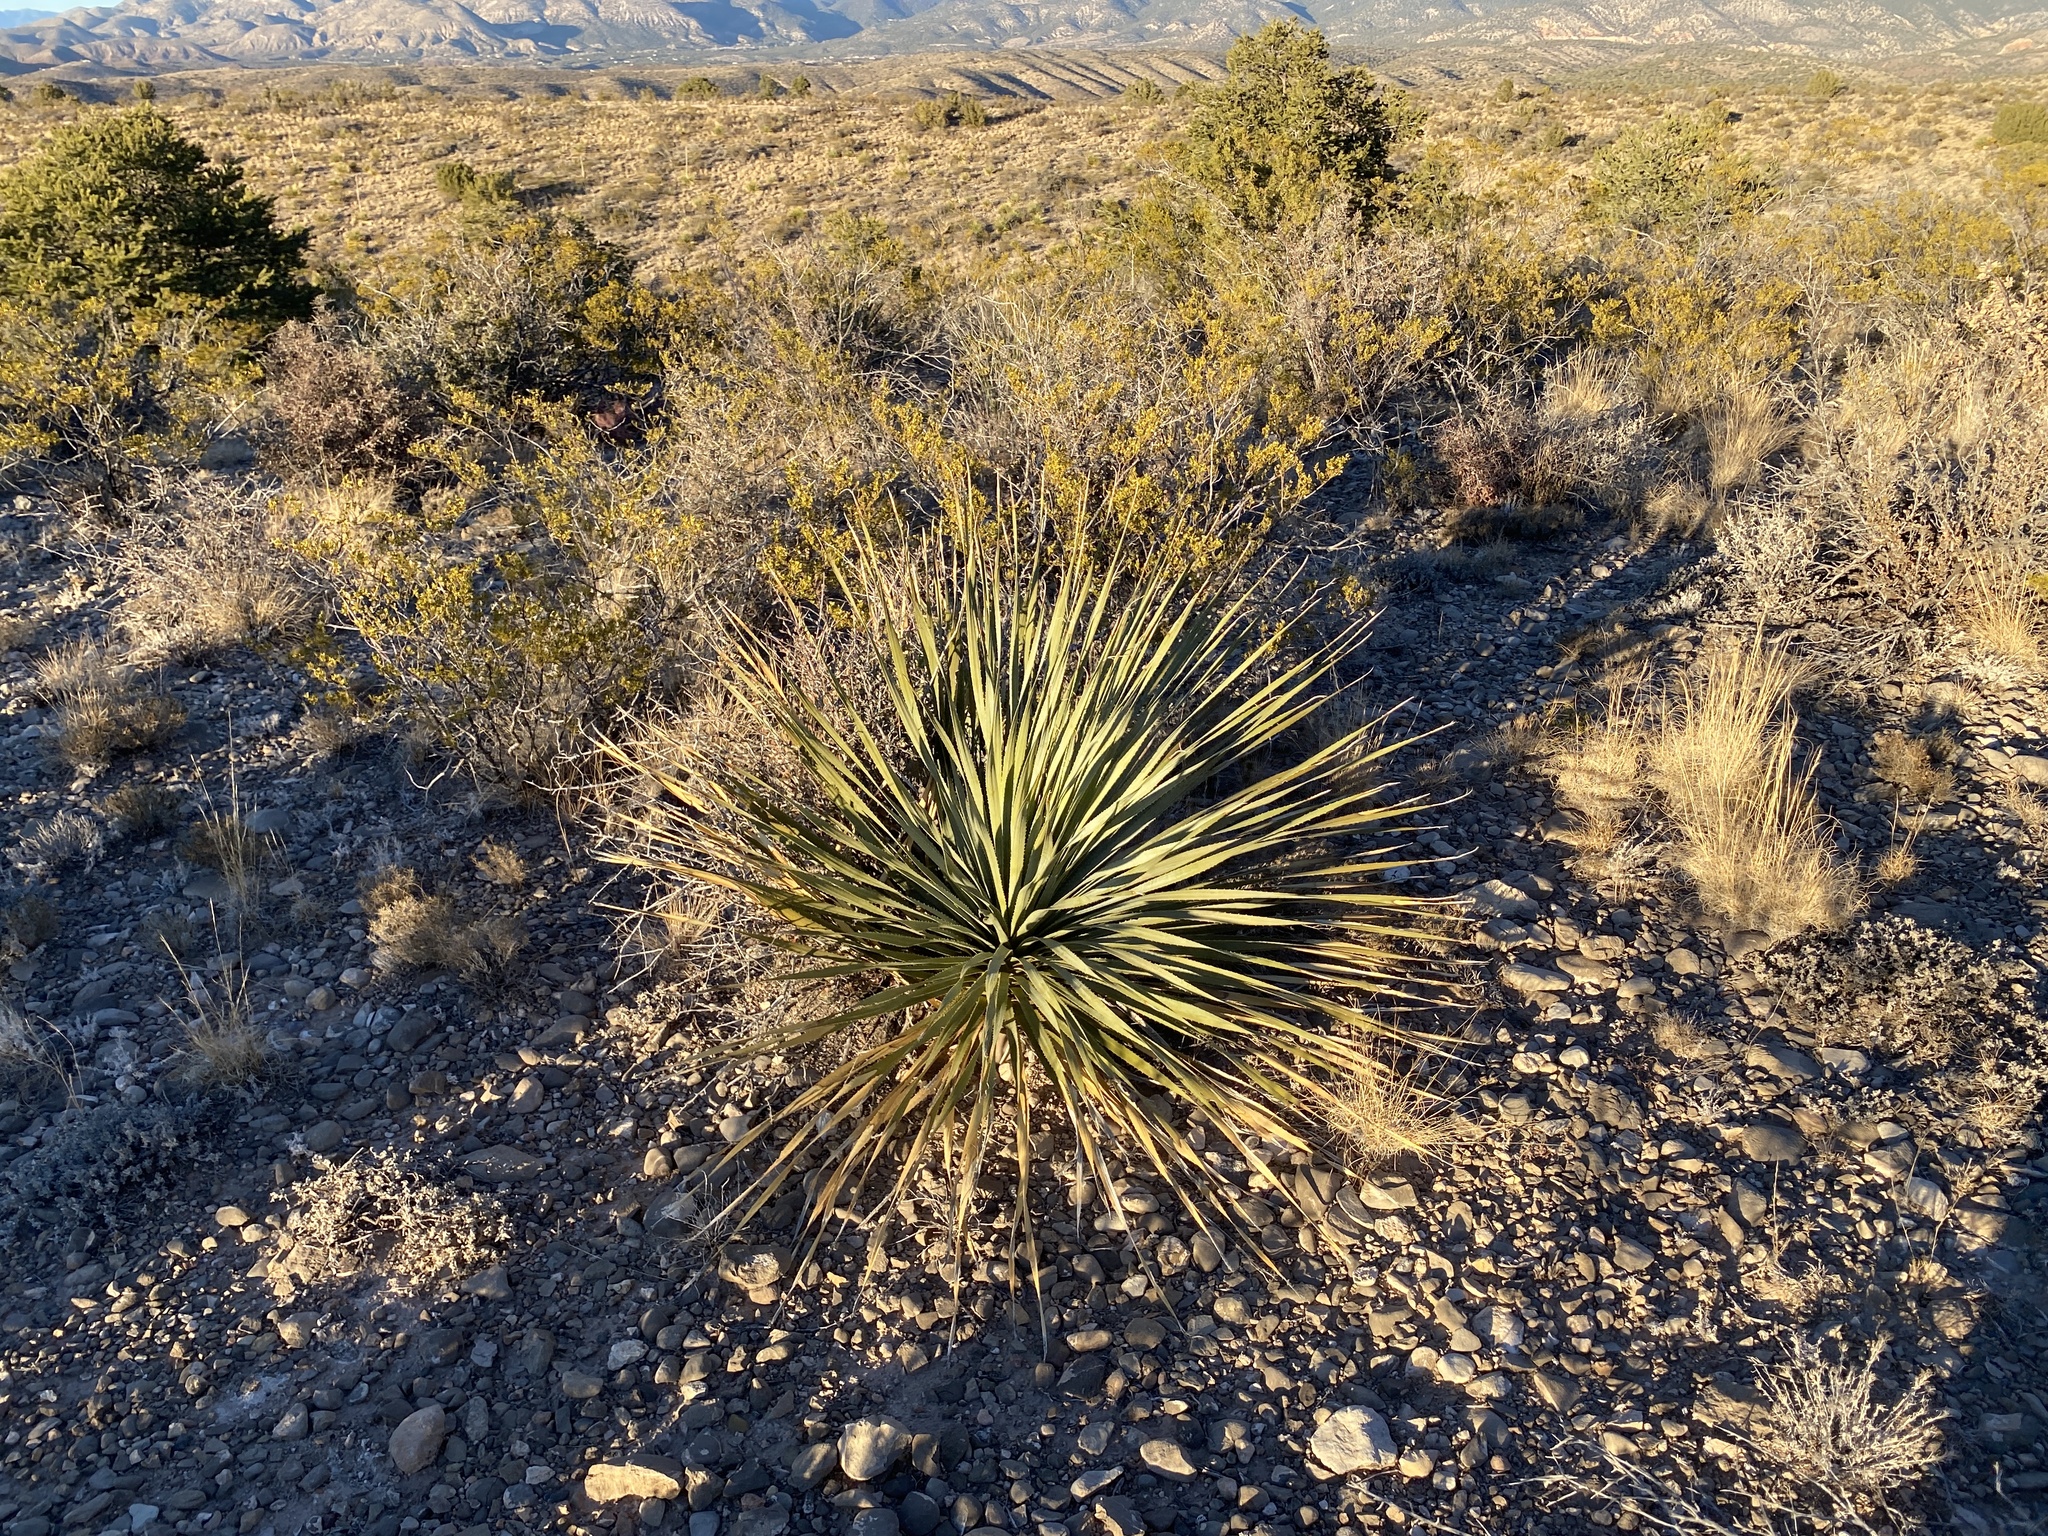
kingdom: Plantae
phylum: Tracheophyta
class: Liliopsida
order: Asparagales
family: Asparagaceae
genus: Dasylirion
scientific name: Dasylirion wheeleri
